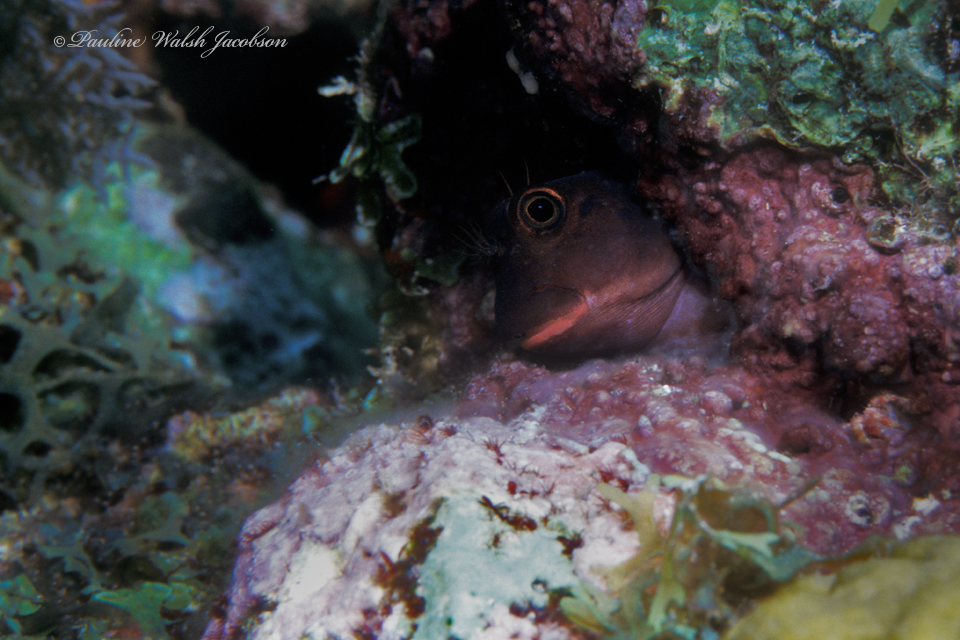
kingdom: Animalia
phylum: Chordata
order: Perciformes
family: Blenniidae
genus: Ophioblennius
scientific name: Ophioblennius macclurei
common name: Redlip blenny
